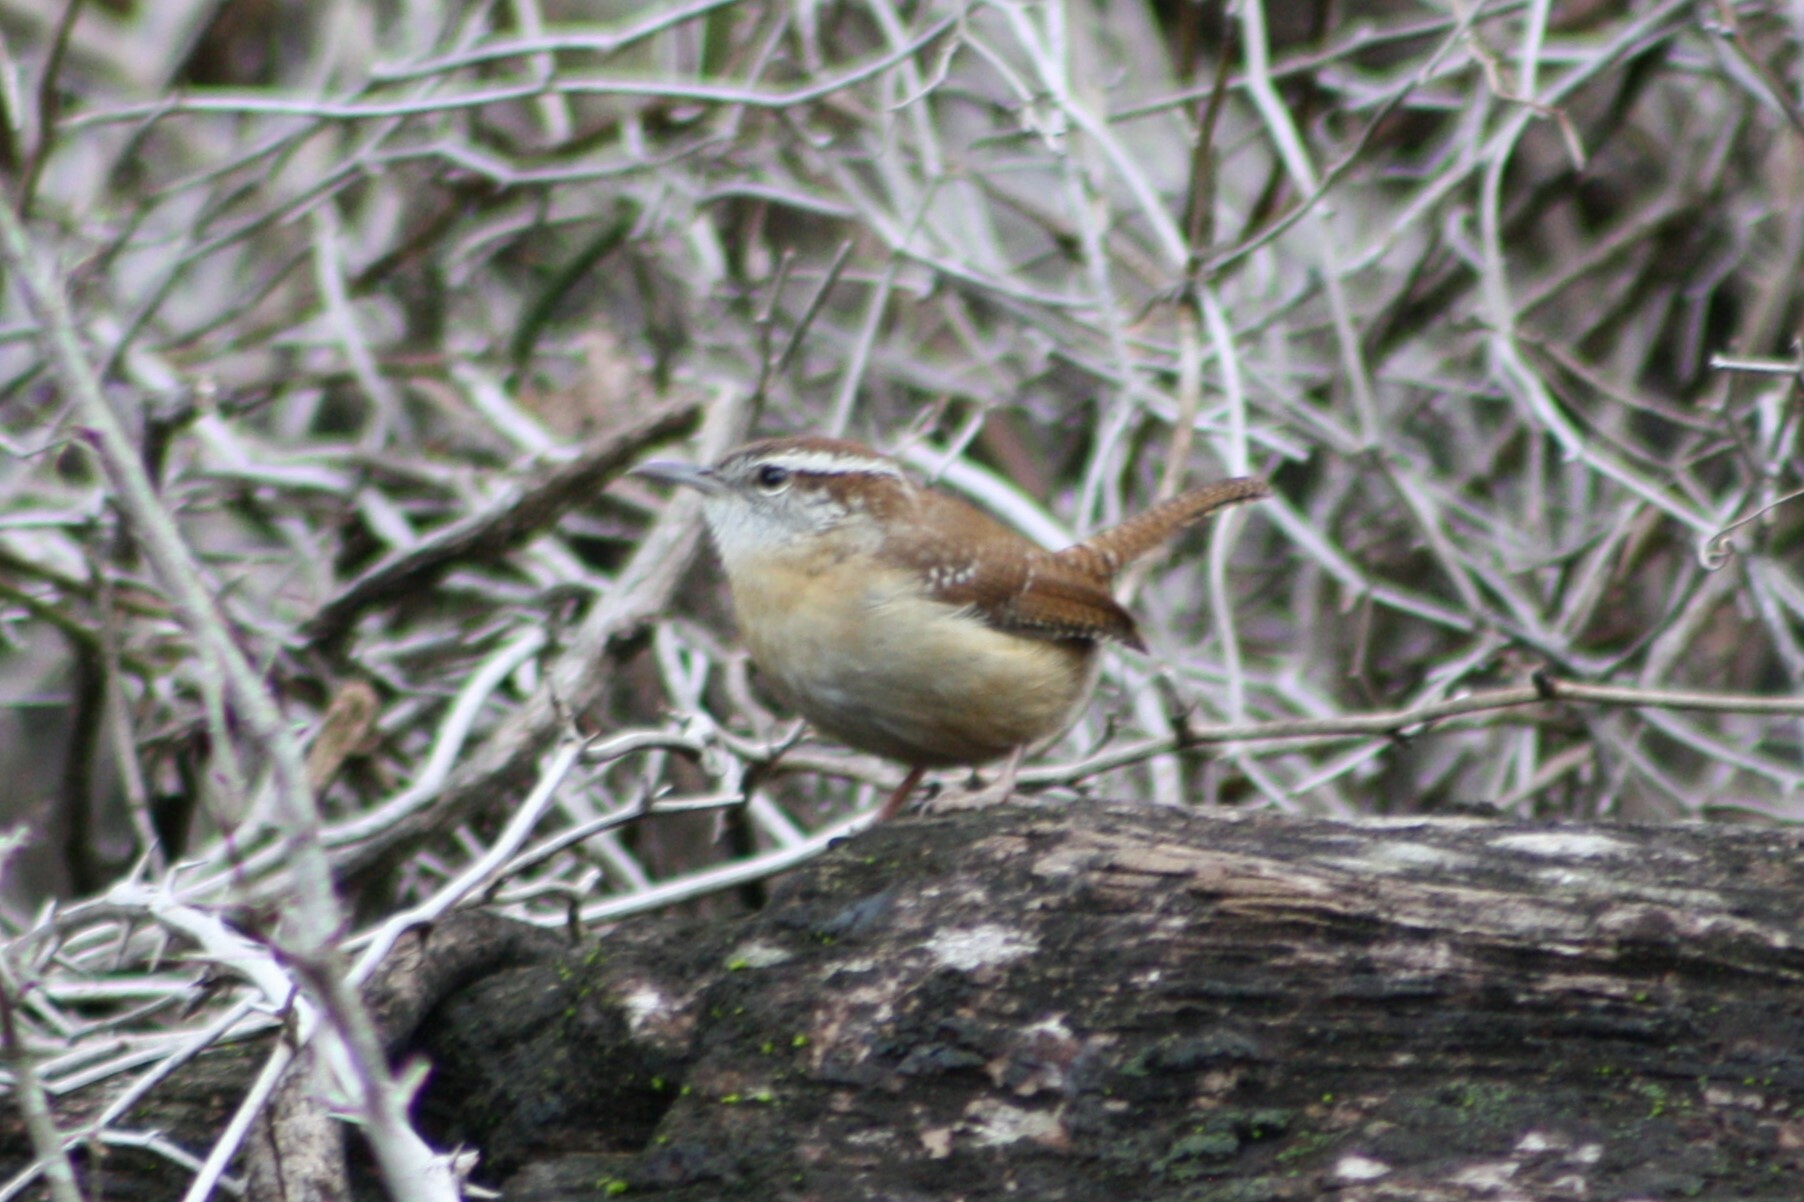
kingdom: Animalia
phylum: Chordata
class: Aves
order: Passeriformes
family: Troglodytidae
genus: Thryothorus
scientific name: Thryothorus ludovicianus
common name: Carolina wren
